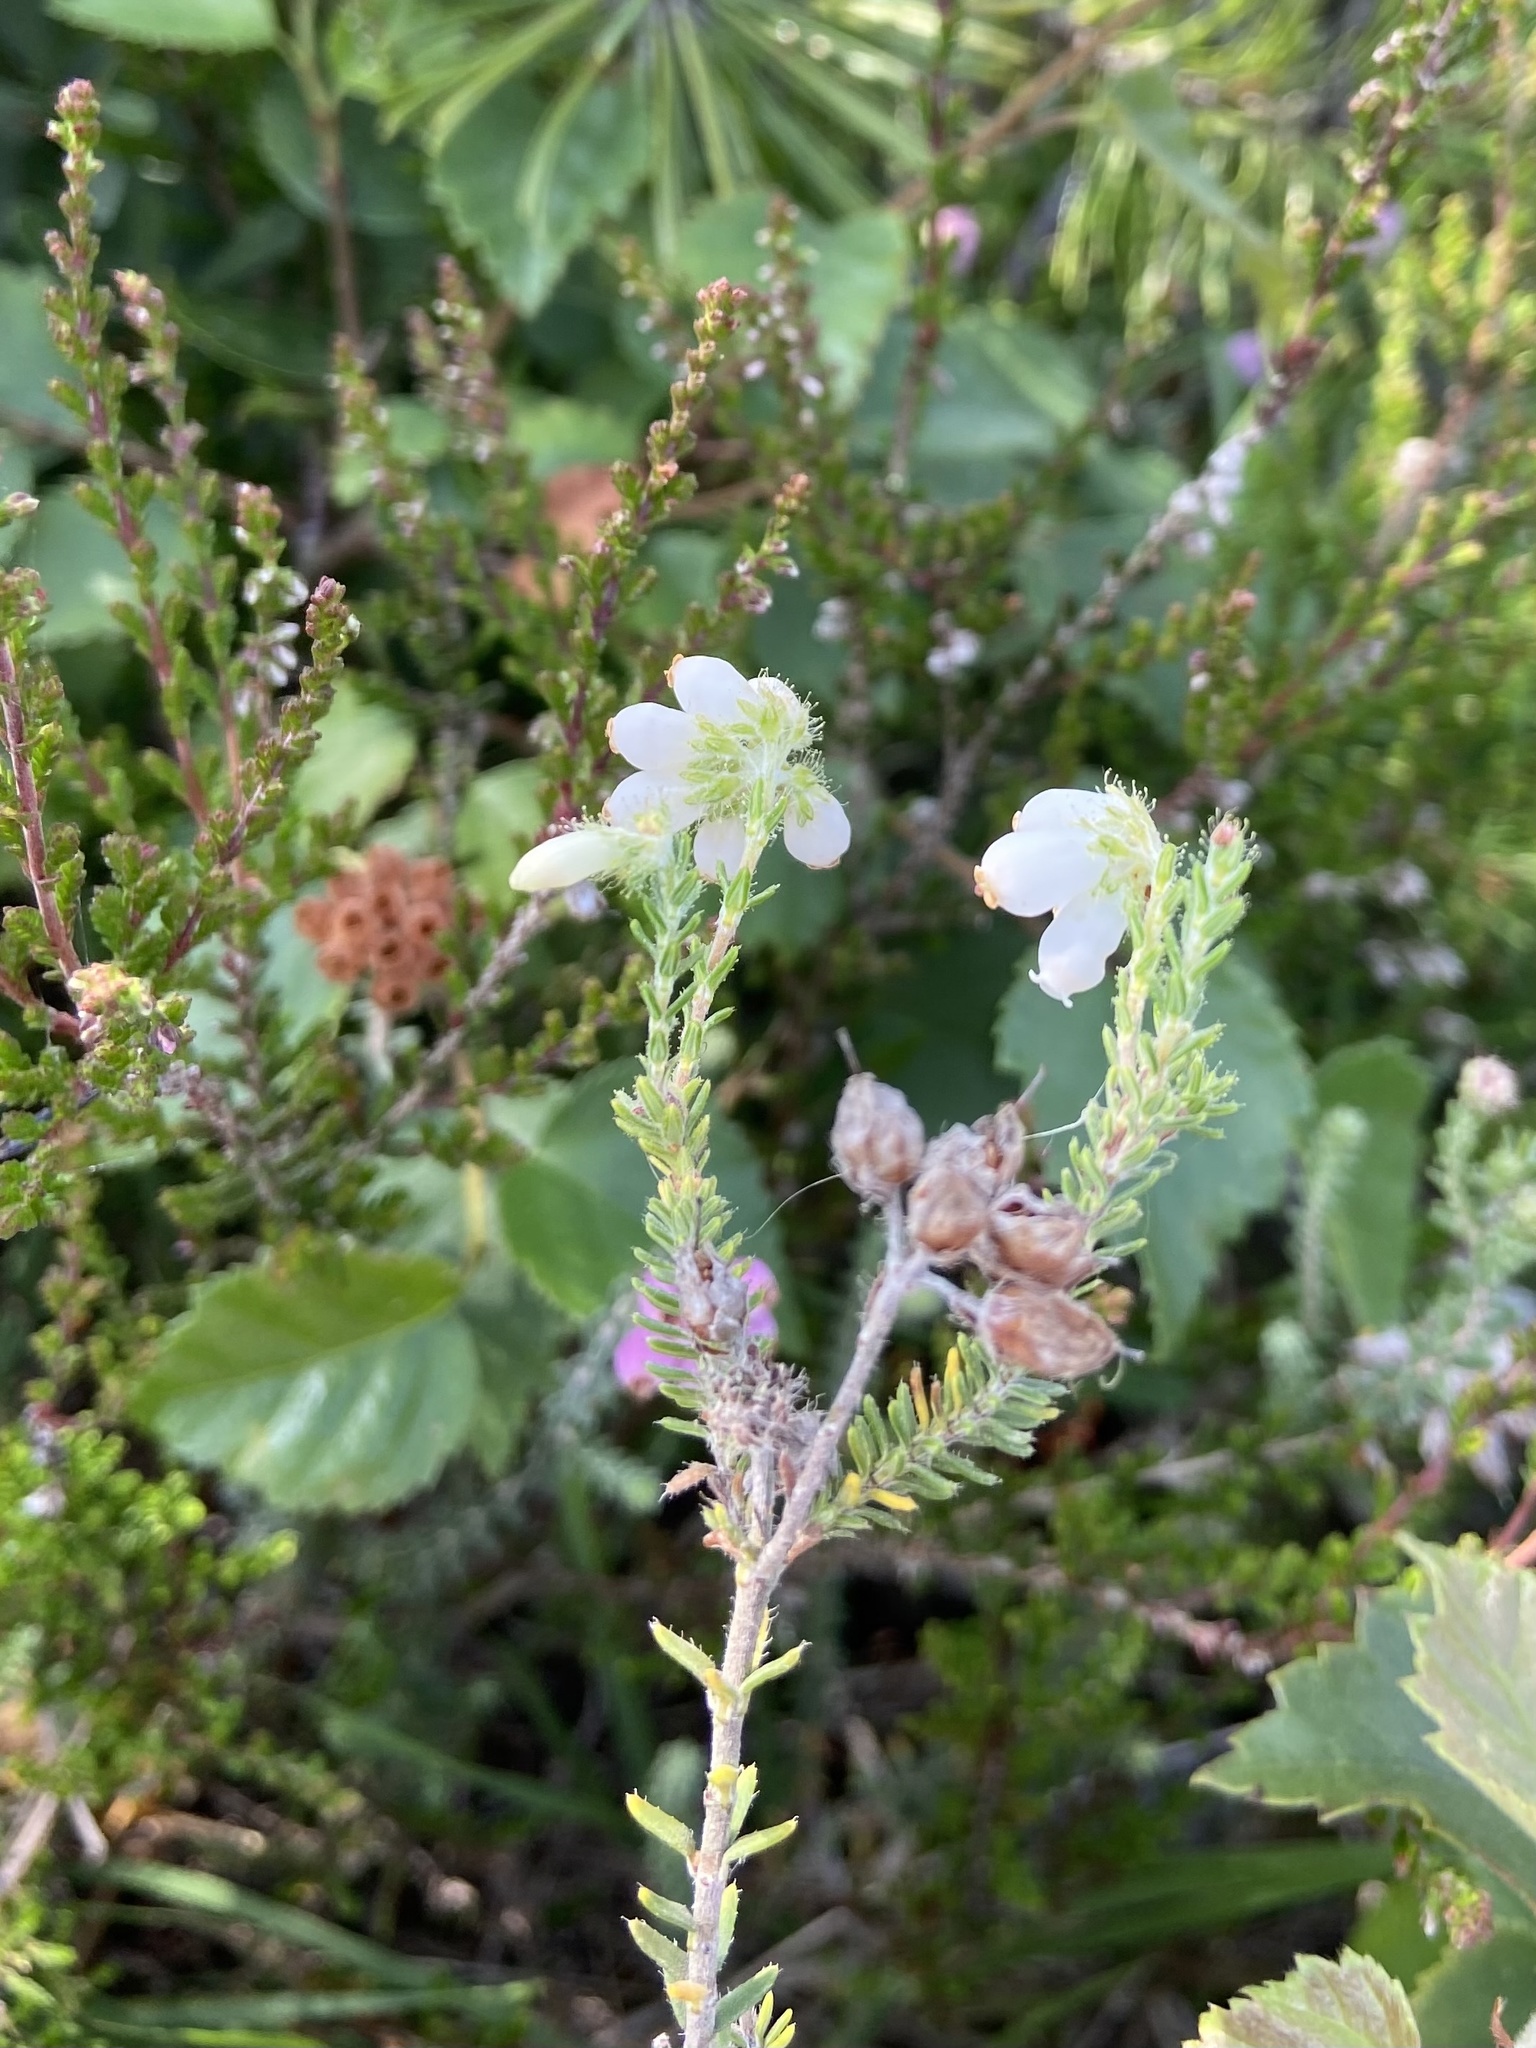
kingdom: Plantae
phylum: Tracheophyta
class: Magnoliopsida
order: Ericales
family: Ericaceae
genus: Erica
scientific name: Erica tetralix
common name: Cross-leaved heath
